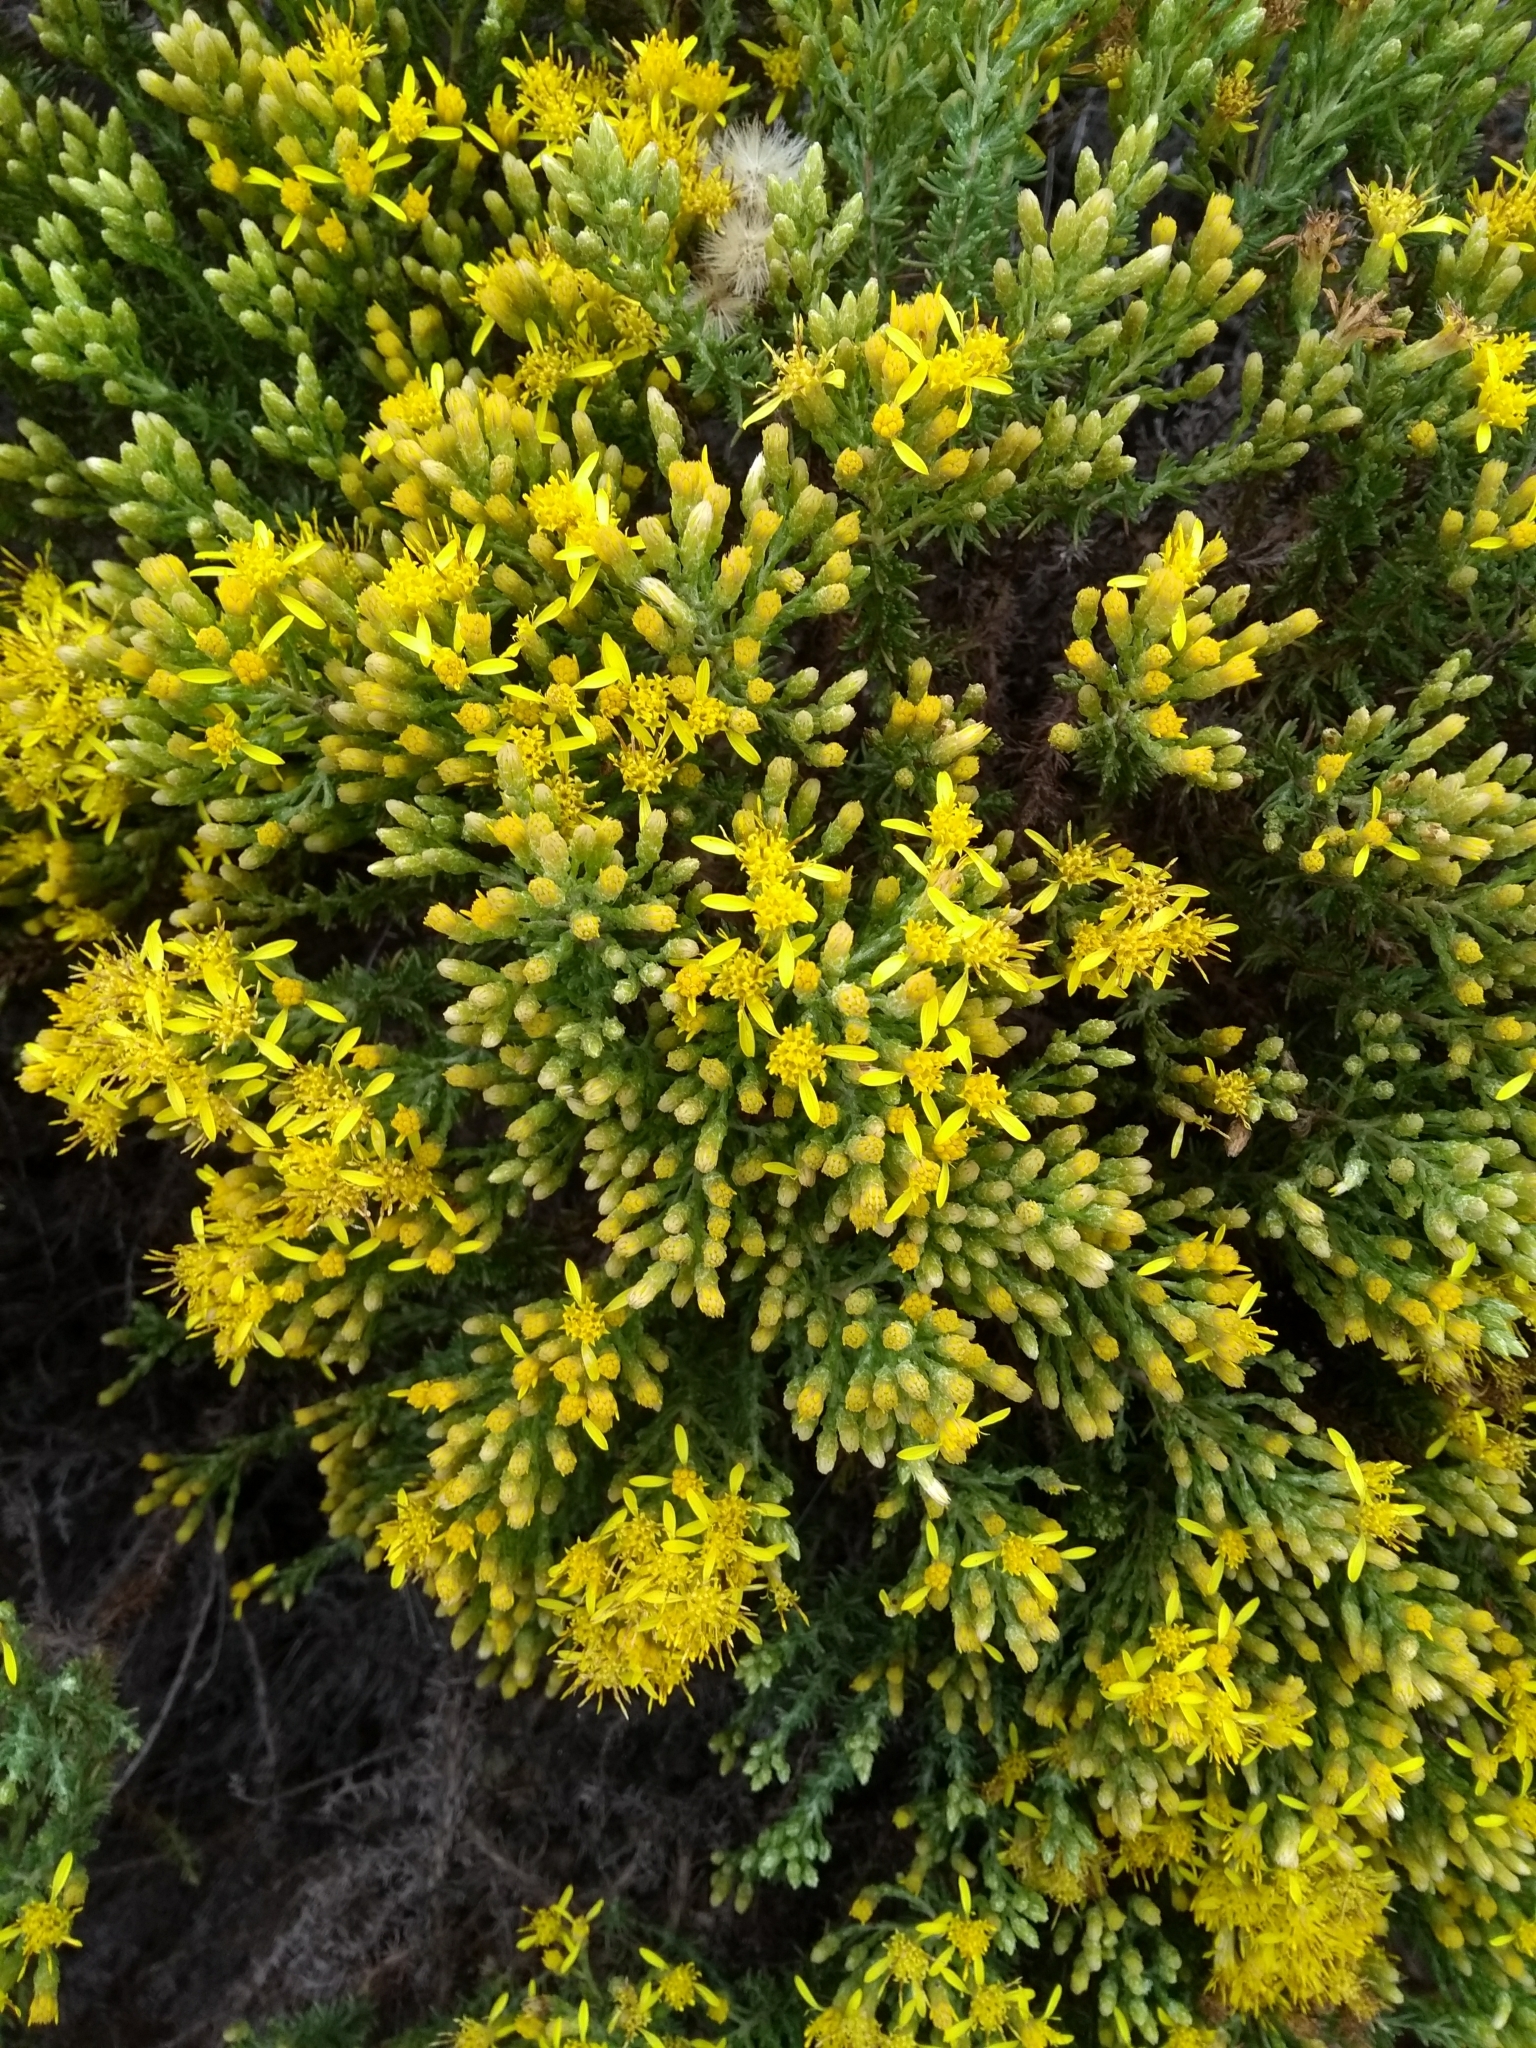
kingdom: Plantae
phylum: Tracheophyta
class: Magnoliopsida
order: Asterales
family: Asteraceae
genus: Ericameria
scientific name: Ericameria ericoides
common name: California goldenbush
